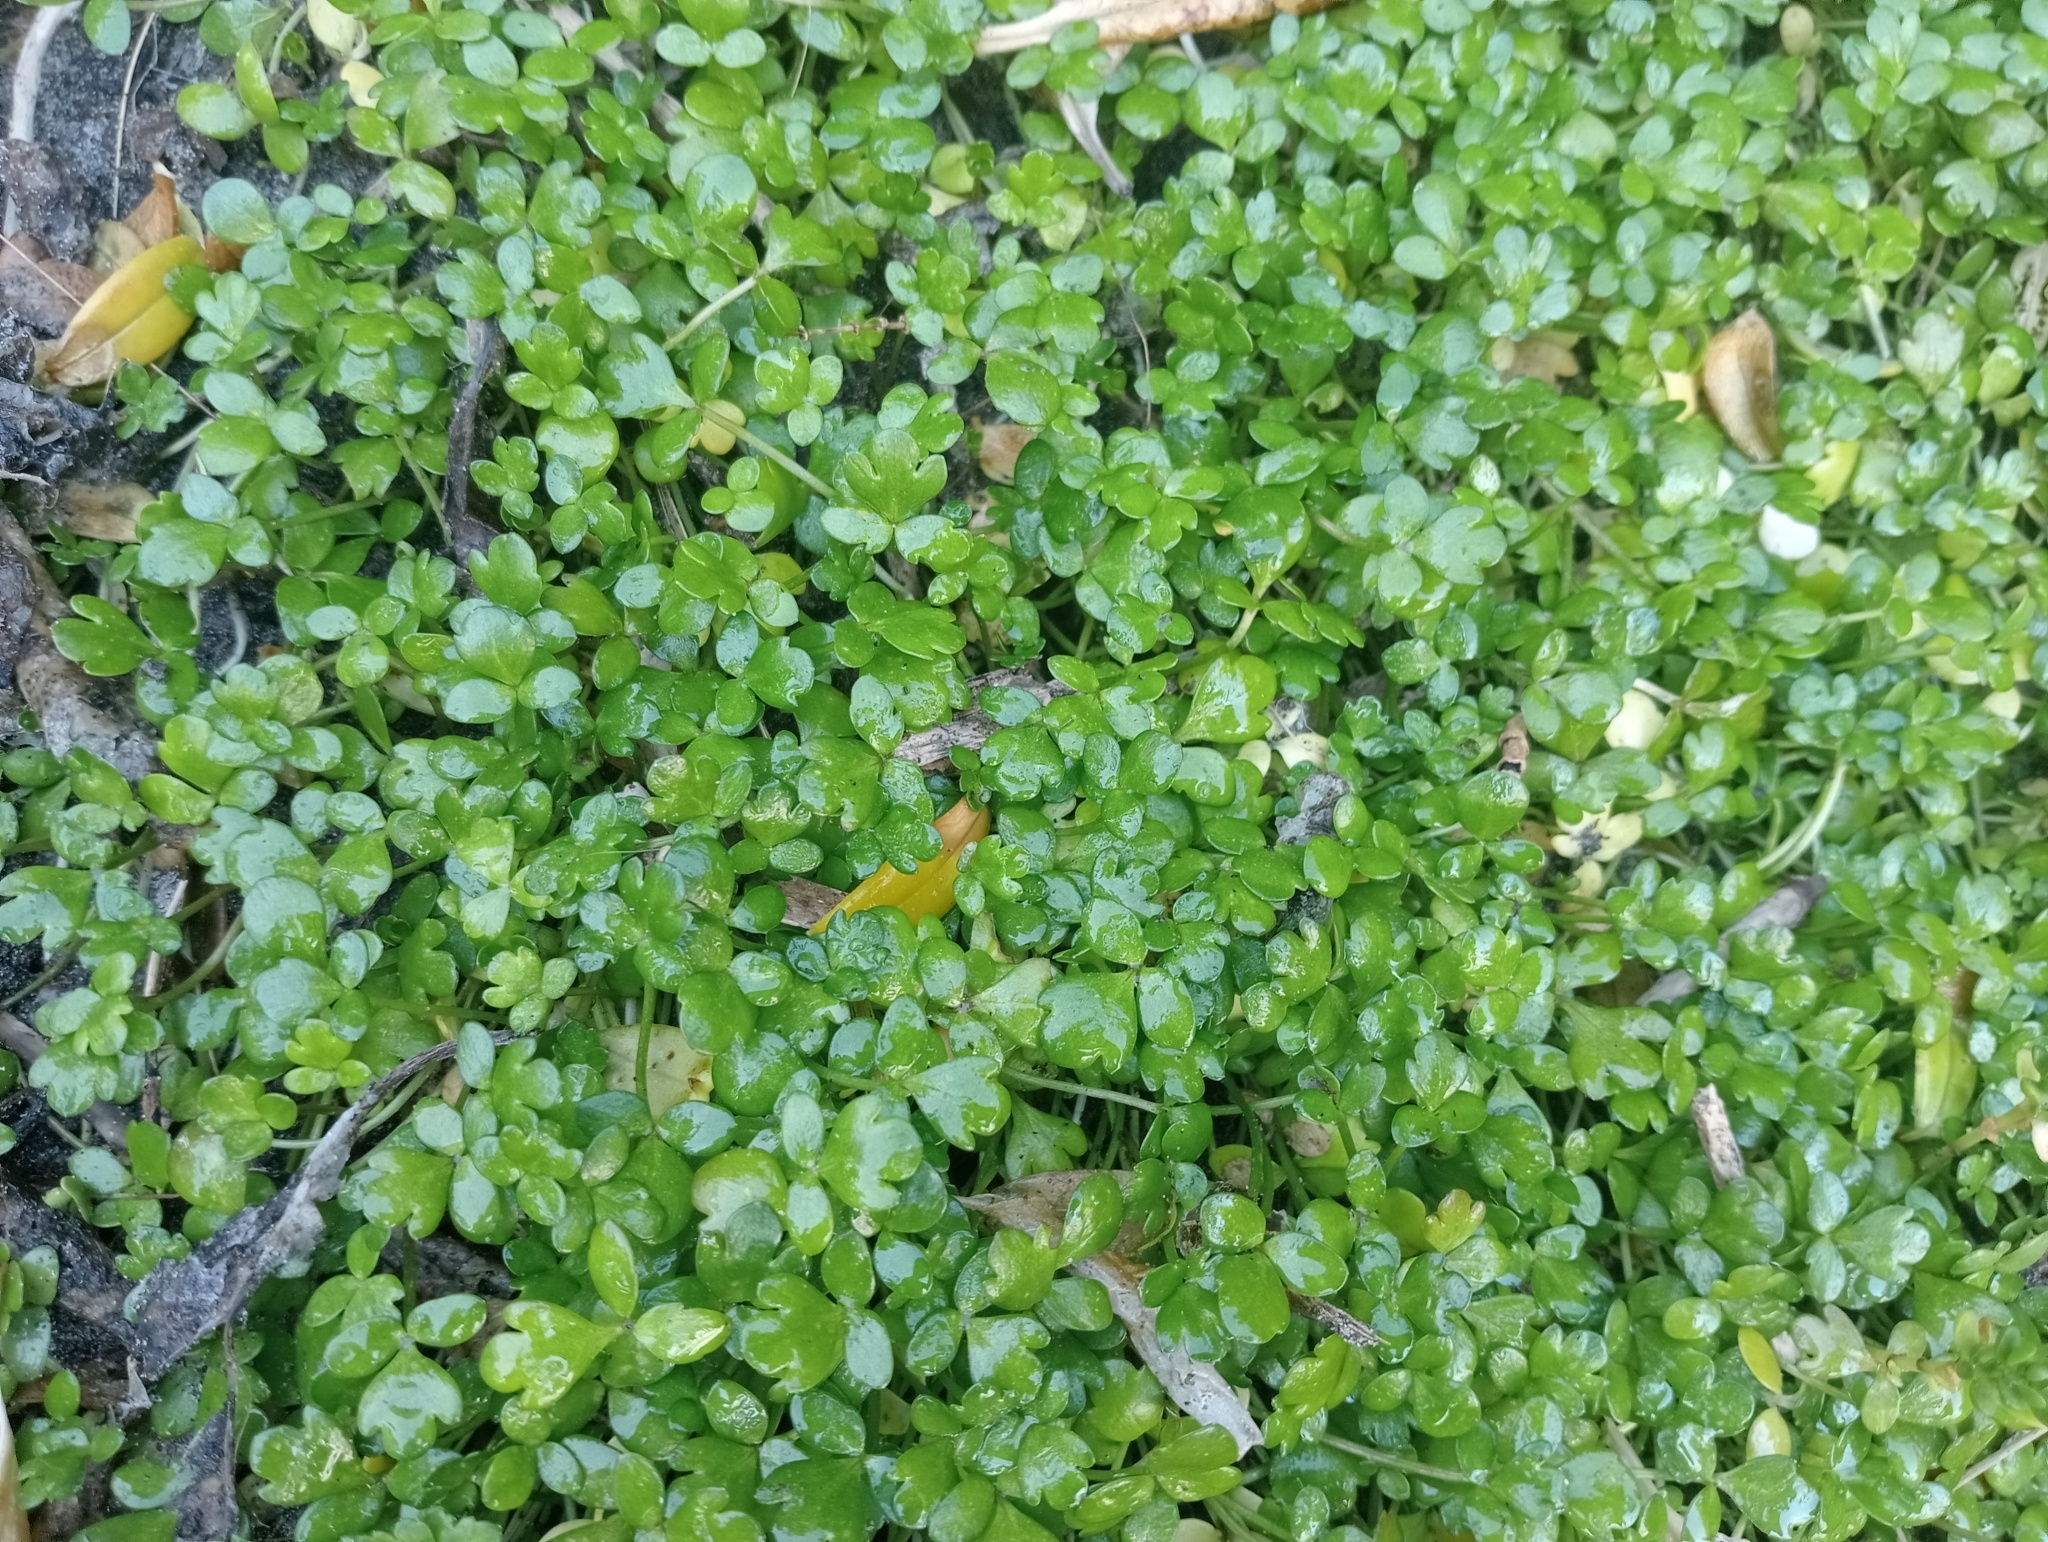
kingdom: Plantae
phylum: Tracheophyta
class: Magnoliopsida
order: Ranunculales
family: Ranunculaceae
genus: Ranunculus
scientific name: Ranunculus acaulis
